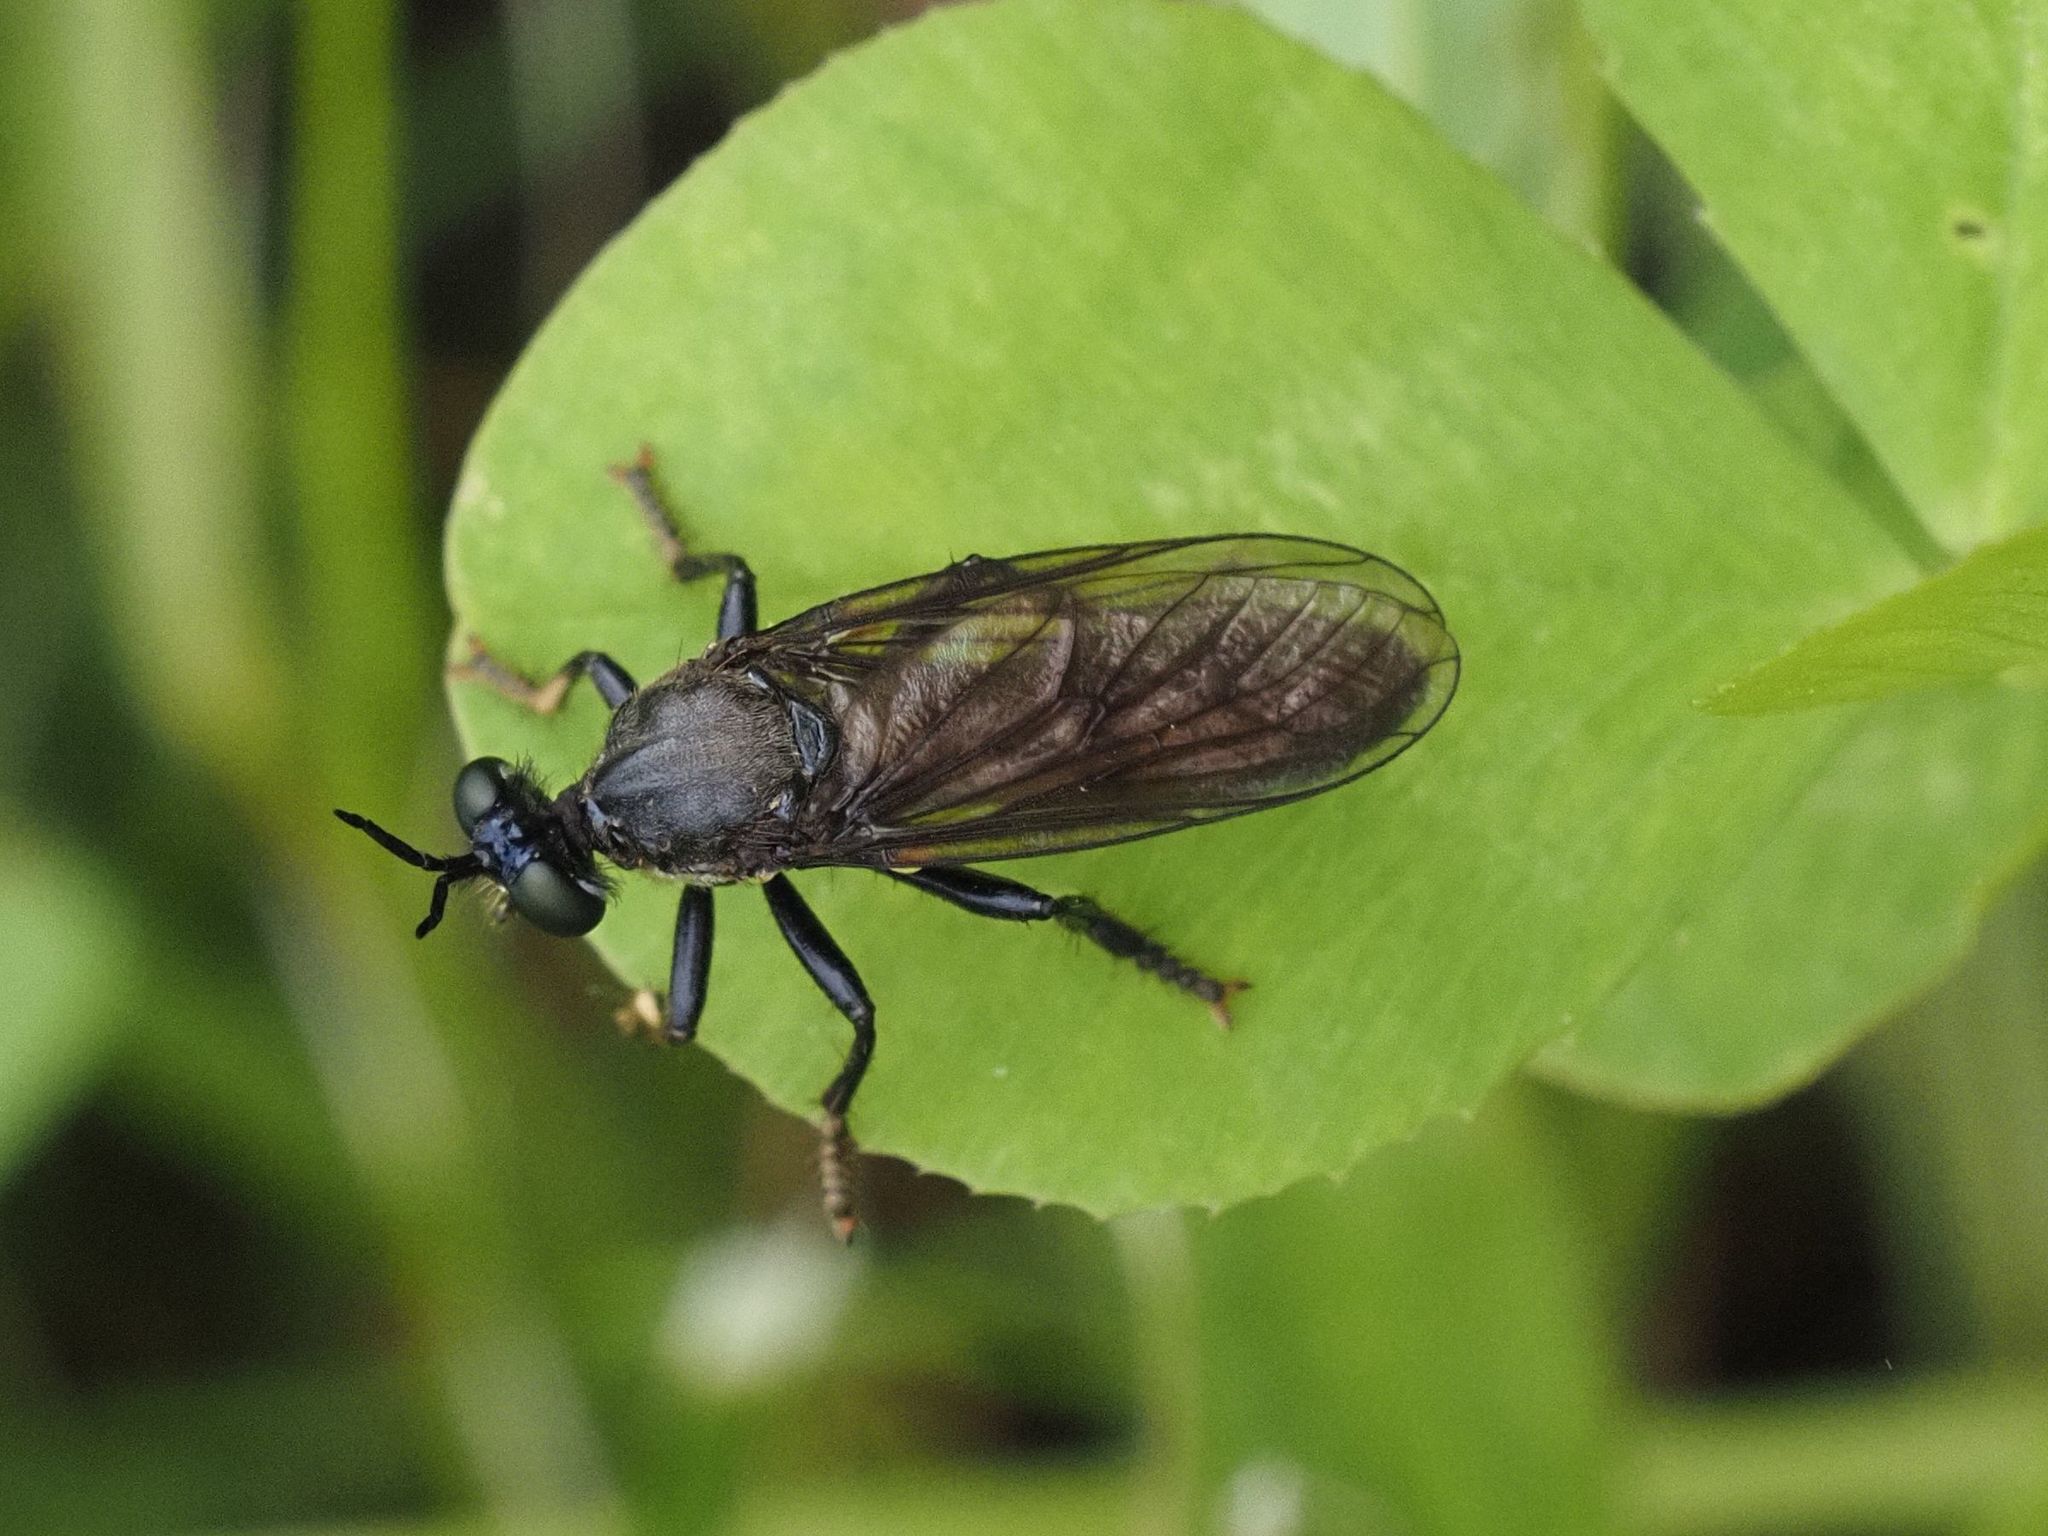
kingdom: Animalia
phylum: Arthropoda
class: Insecta
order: Diptera
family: Asilidae
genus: Dioctria
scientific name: Dioctria atricapilla
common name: Violet black-legged
